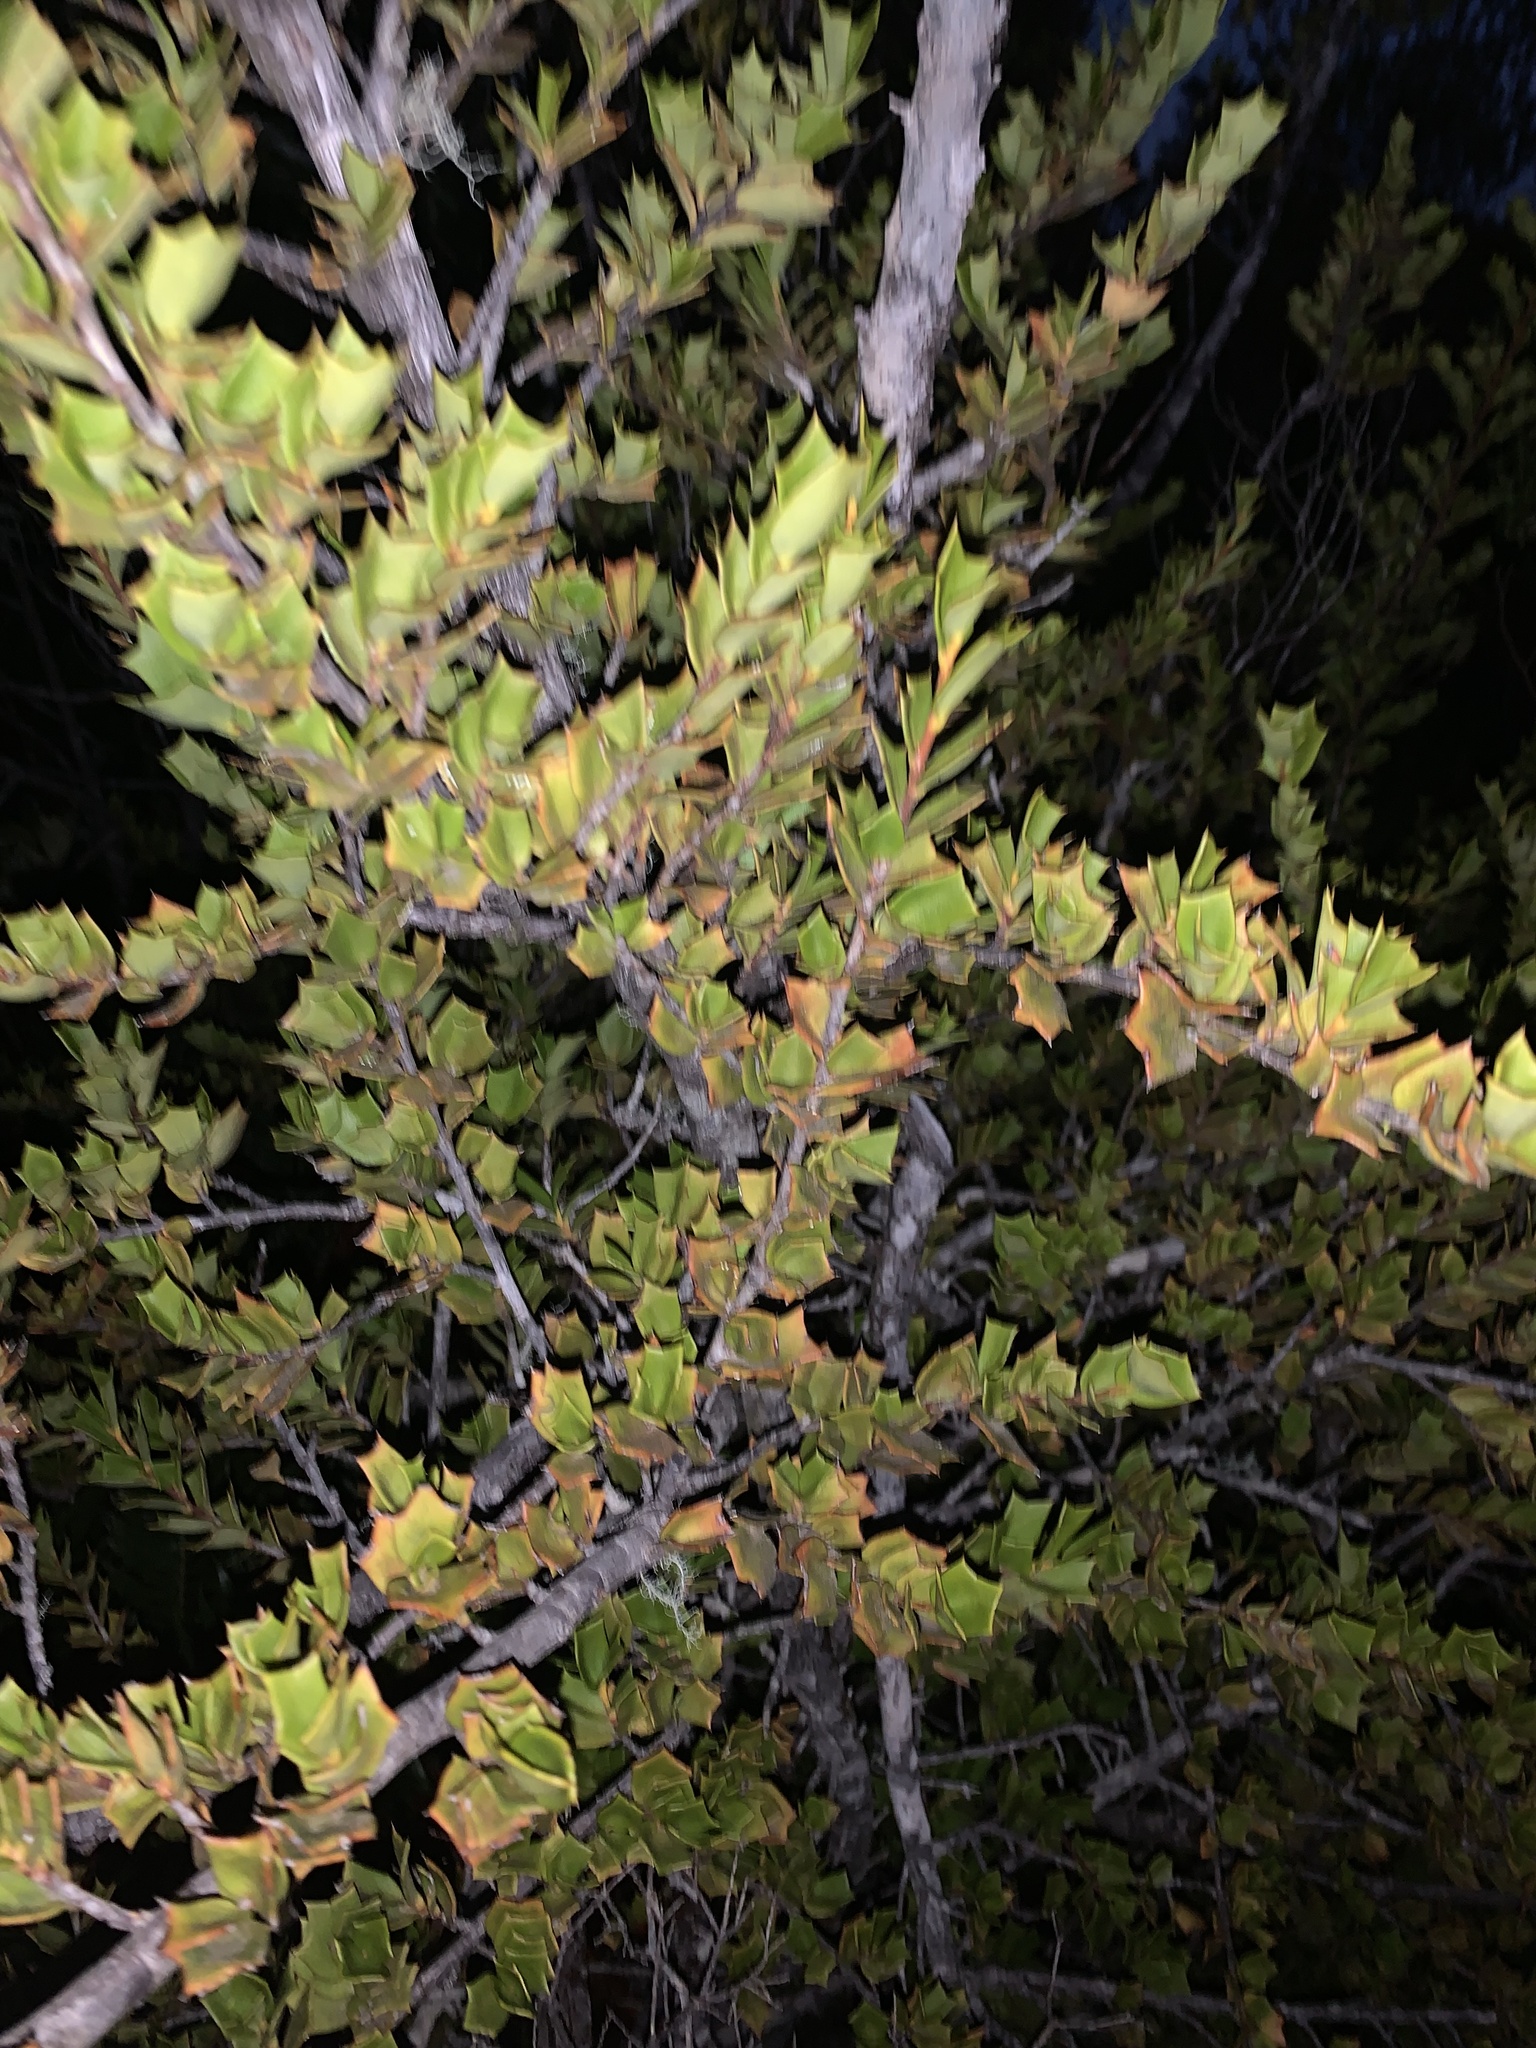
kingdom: Plantae
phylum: Tracheophyta
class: Magnoliopsida
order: Apiales
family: Griseliniaceae
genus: Griselinia
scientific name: Griselinia jodinifolia
